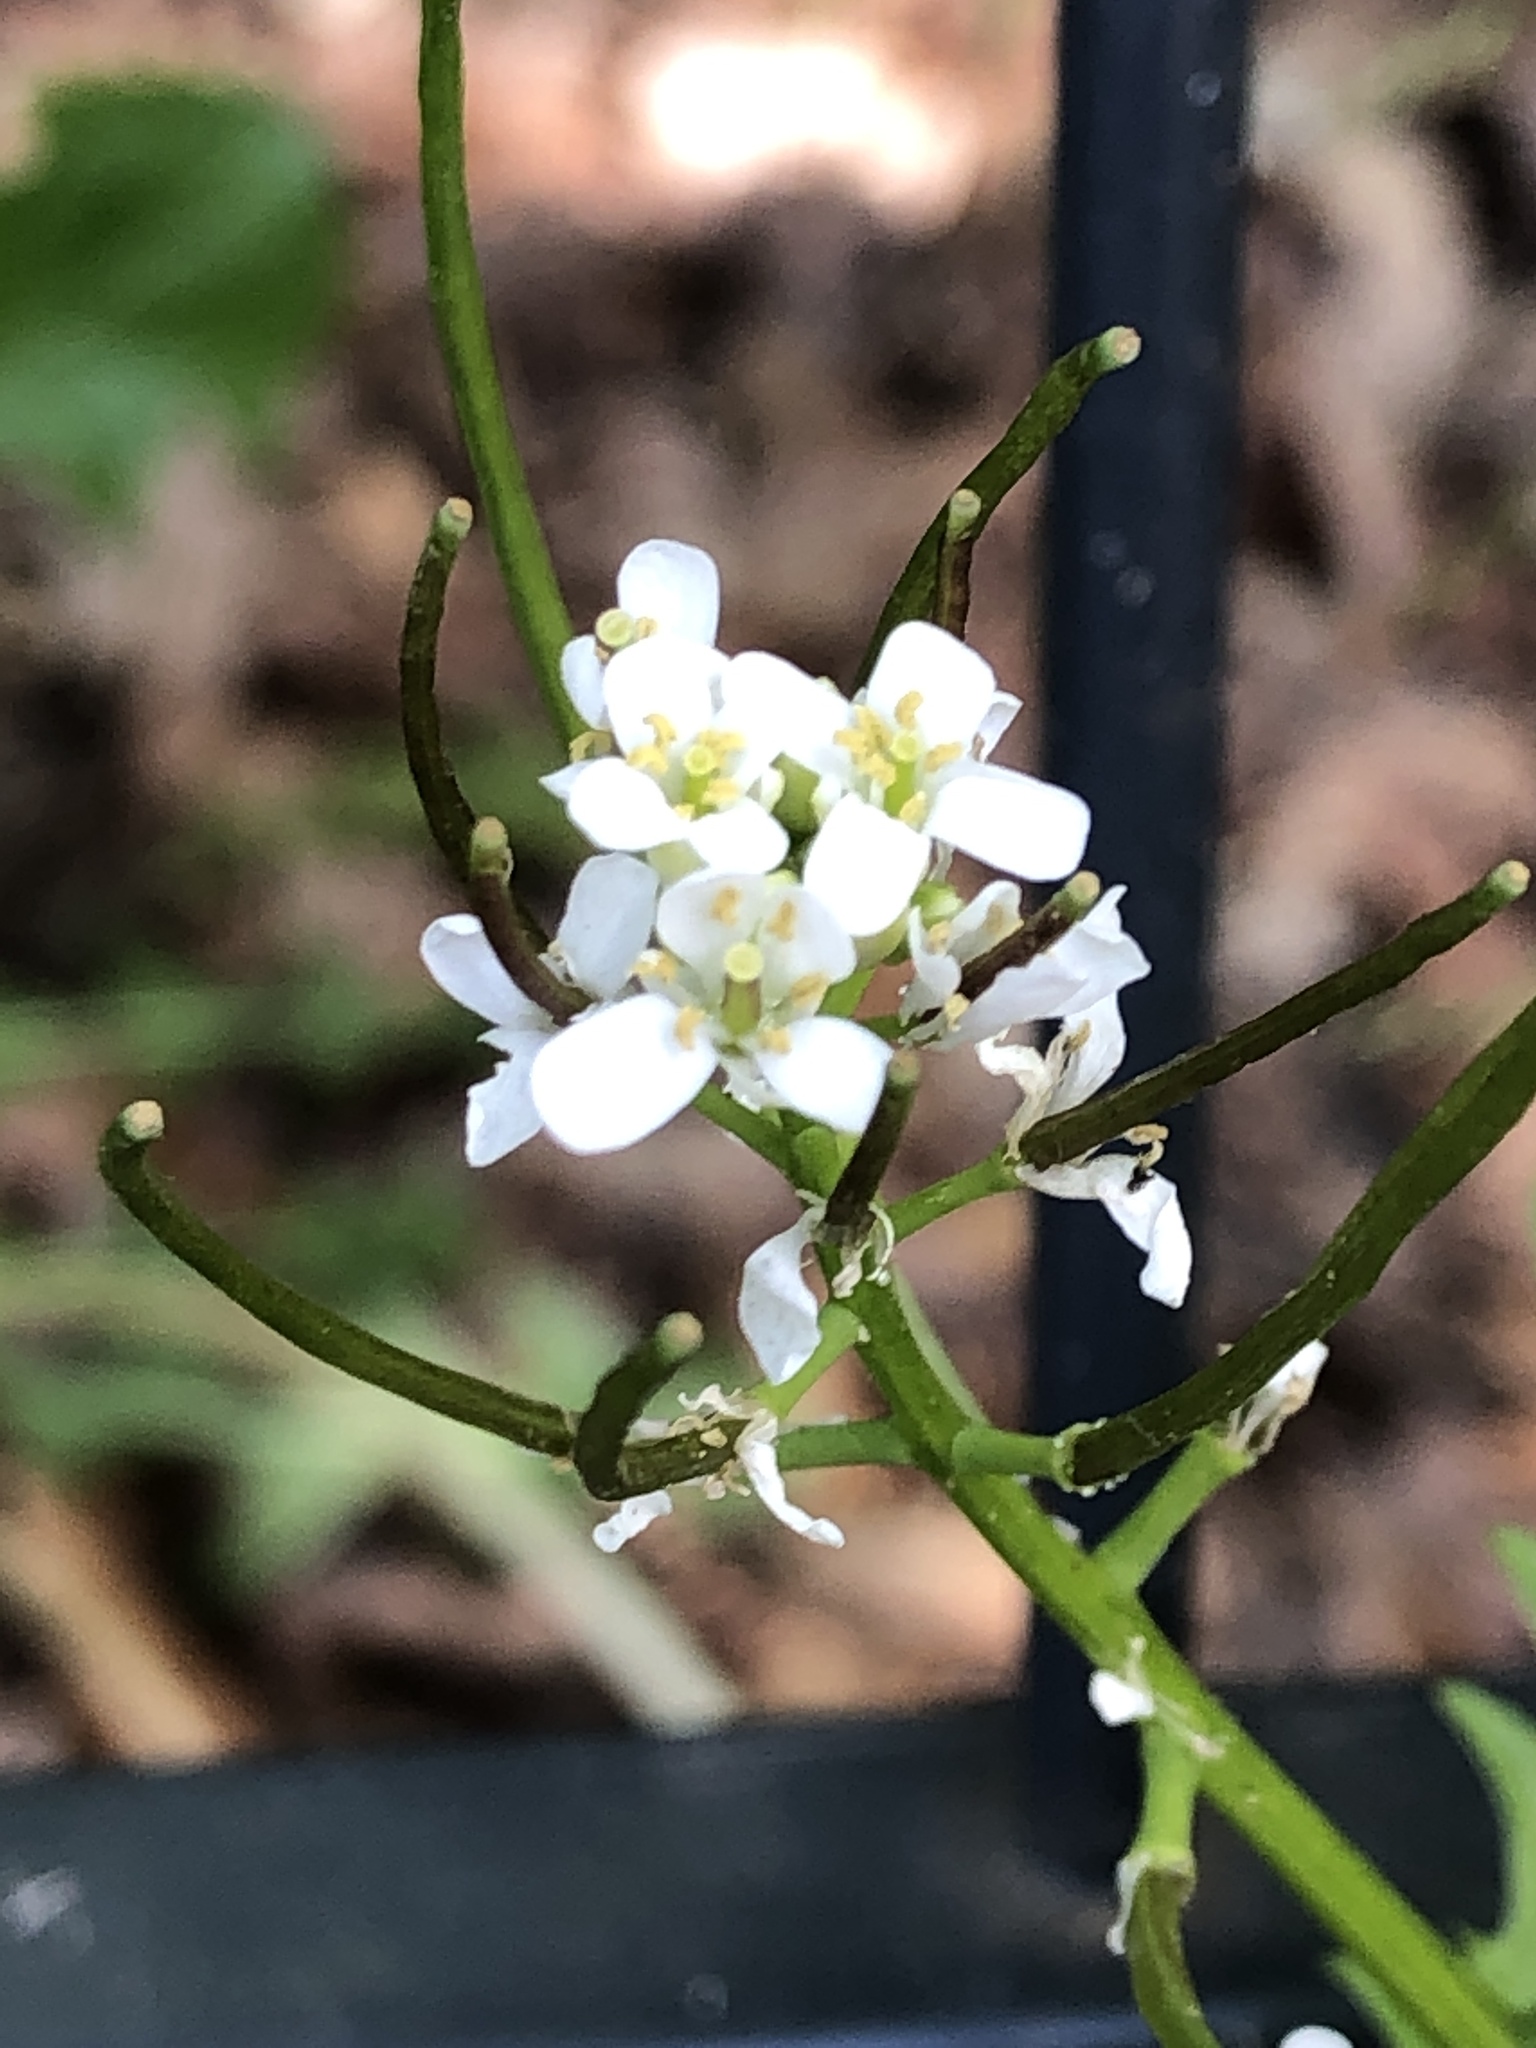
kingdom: Plantae
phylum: Tracheophyta
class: Magnoliopsida
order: Brassicales
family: Brassicaceae
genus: Alliaria
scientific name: Alliaria petiolata
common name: Garlic mustard
